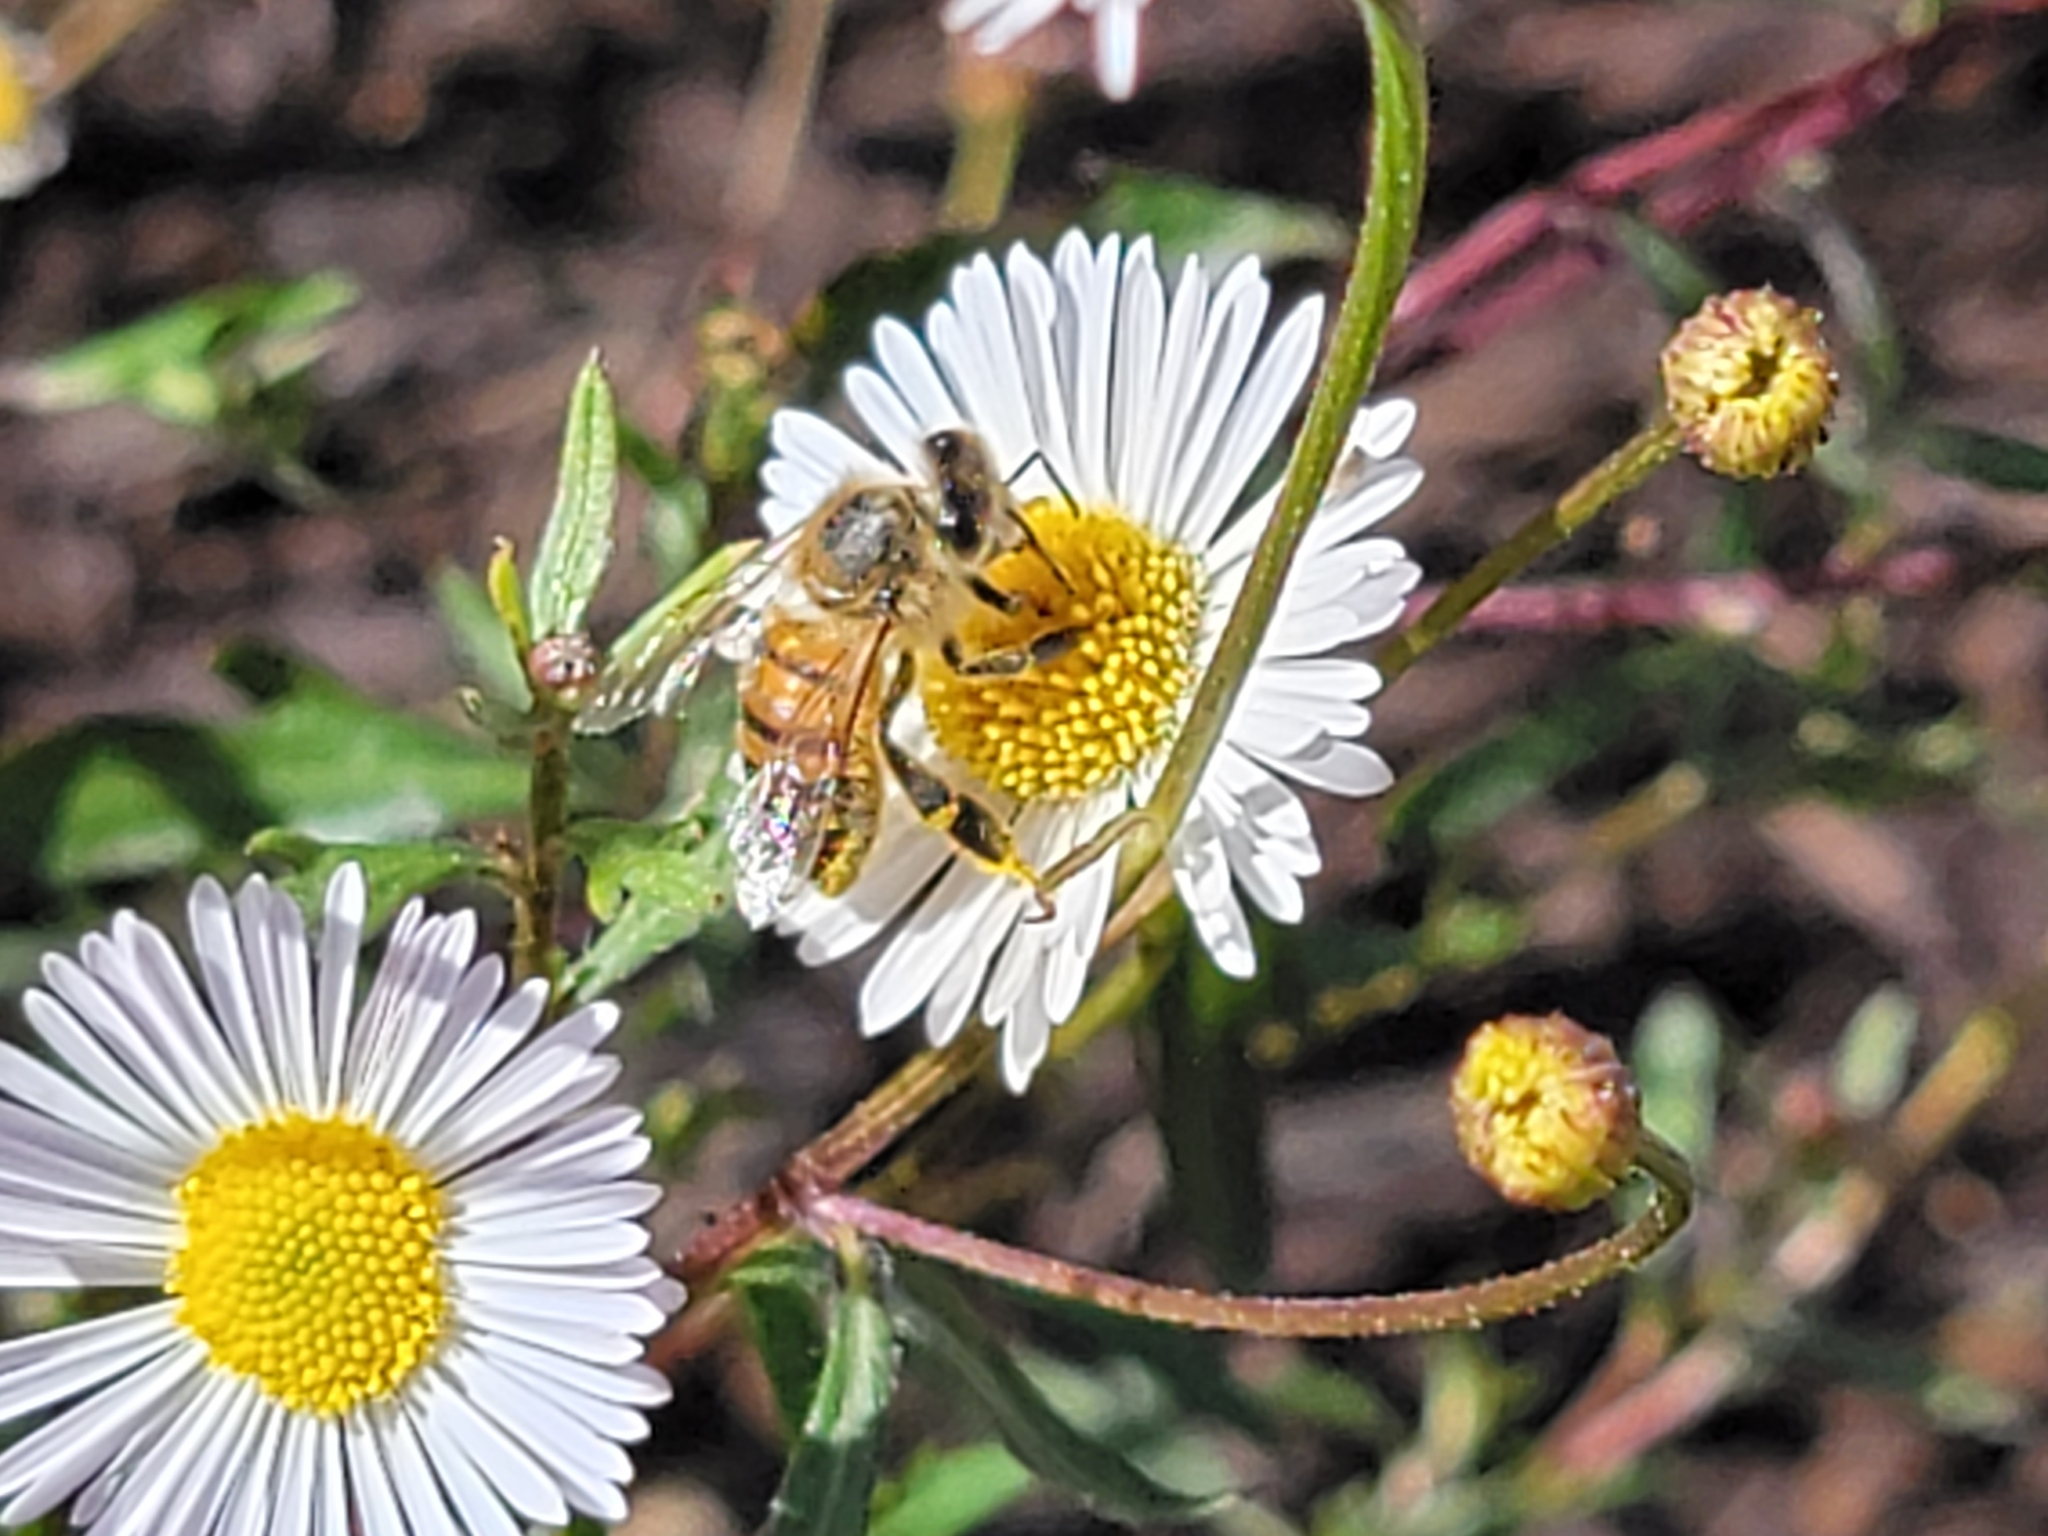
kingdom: Animalia
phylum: Arthropoda
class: Insecta
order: Hymenoptera
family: Apidae
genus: Apis
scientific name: Apis mellifera
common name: Honey bee
